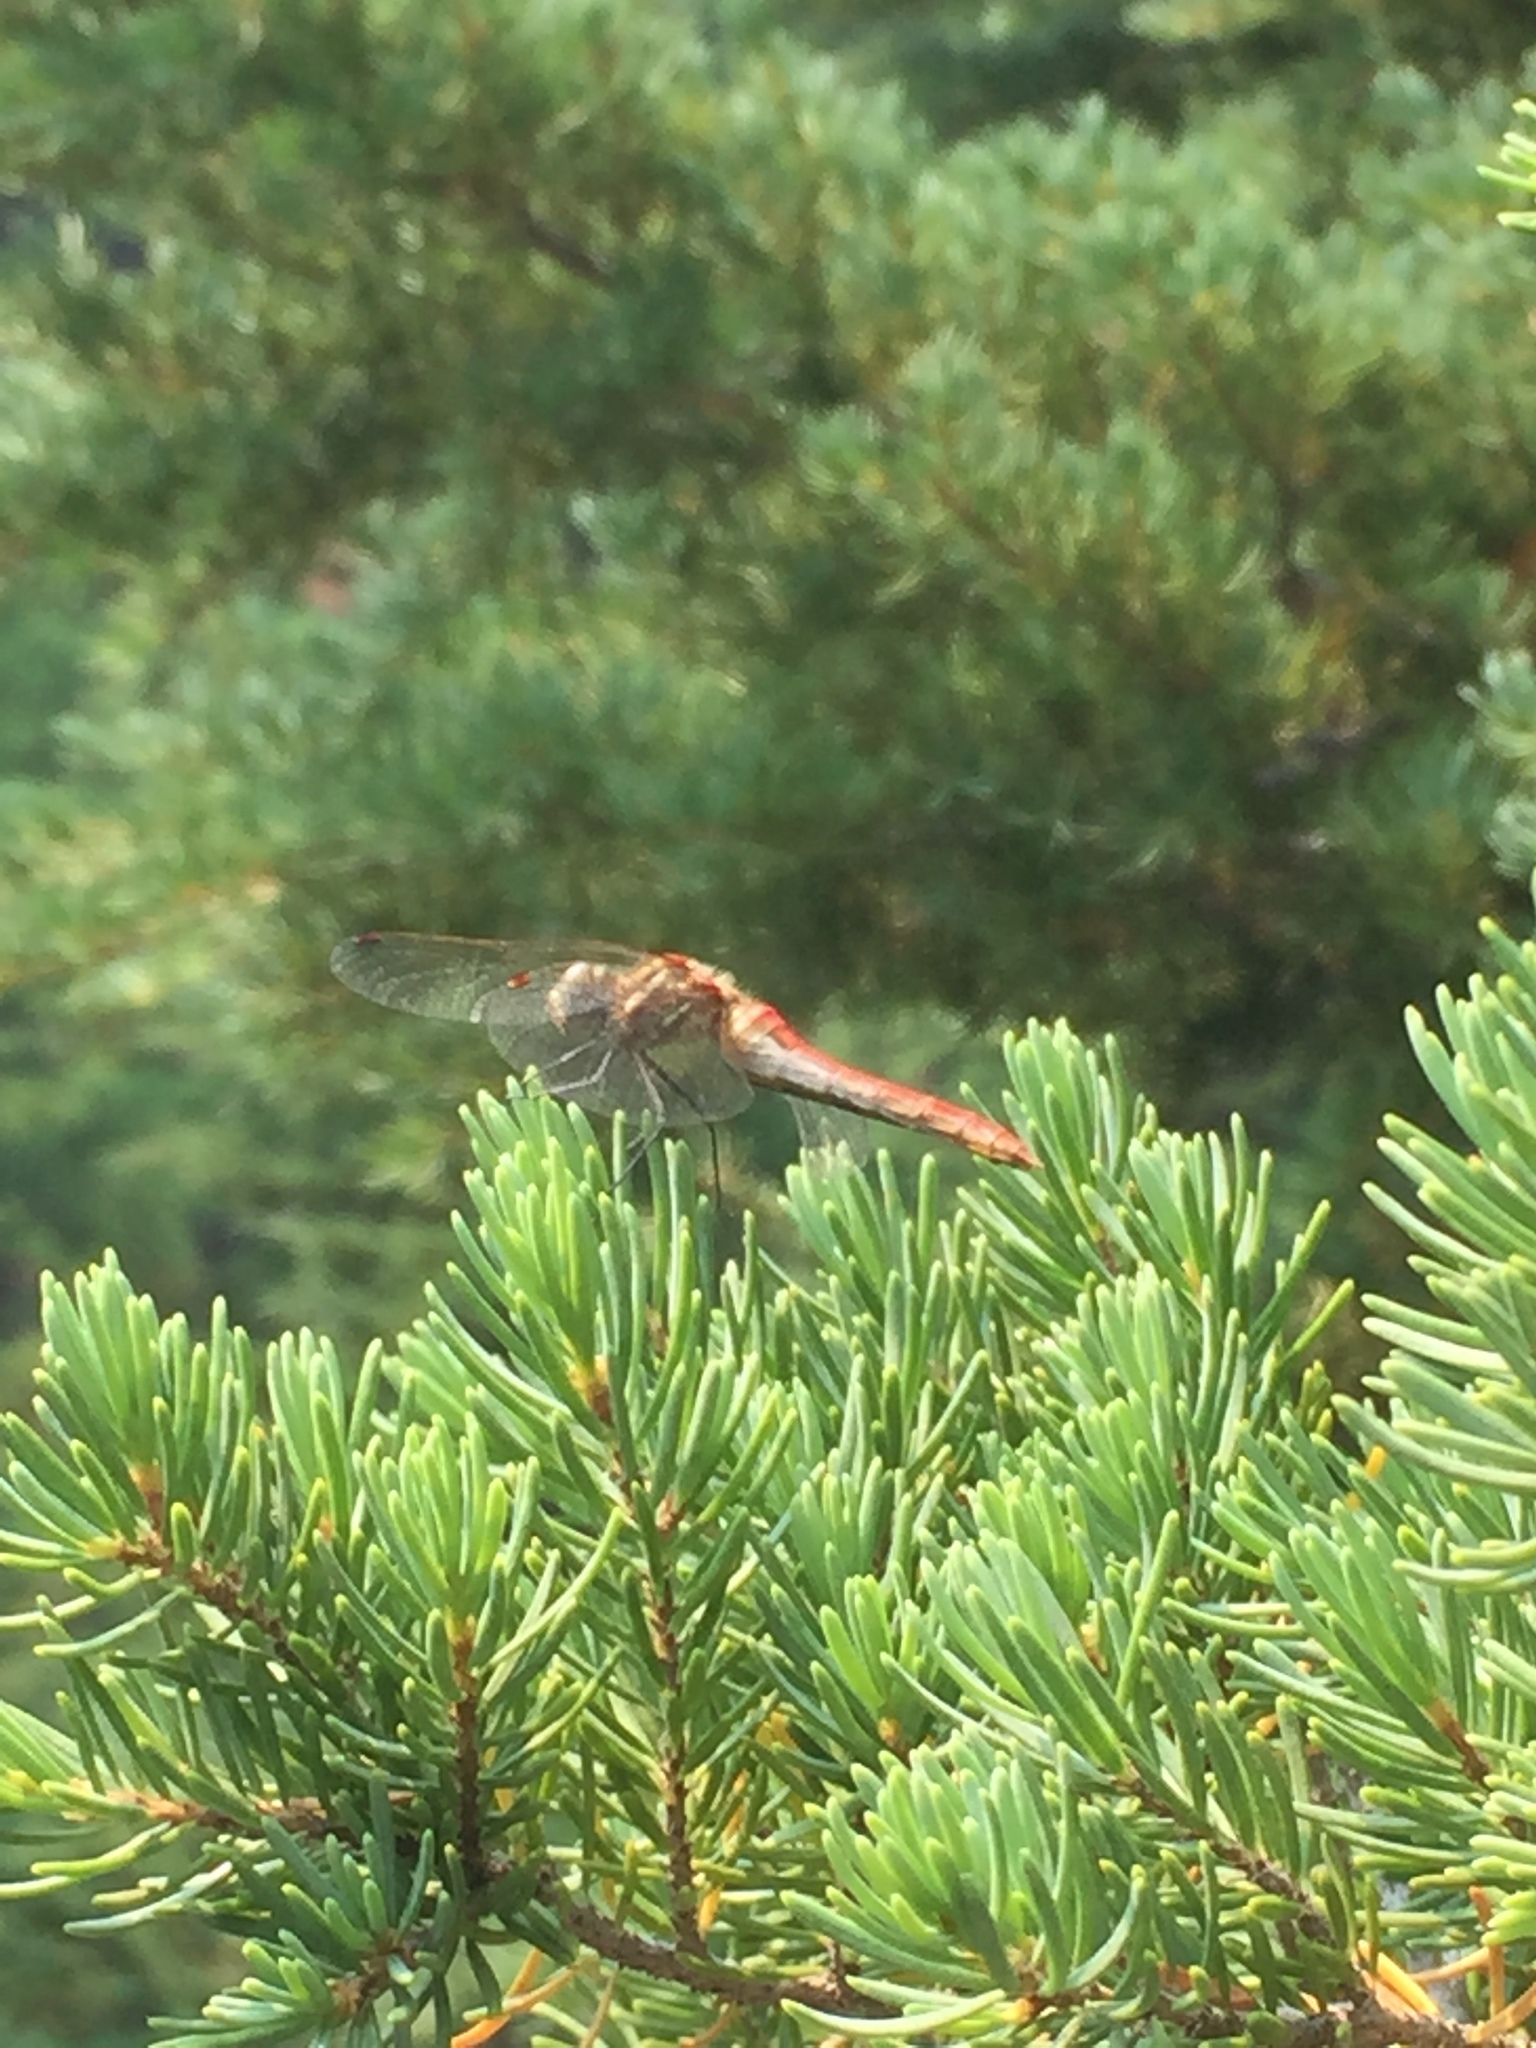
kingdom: Animalia
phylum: Arthropoda
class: Insecta
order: Odonata
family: Libellulidae
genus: Sympetrum
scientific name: Sympetrum pallipes
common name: Striped meadowhawk
